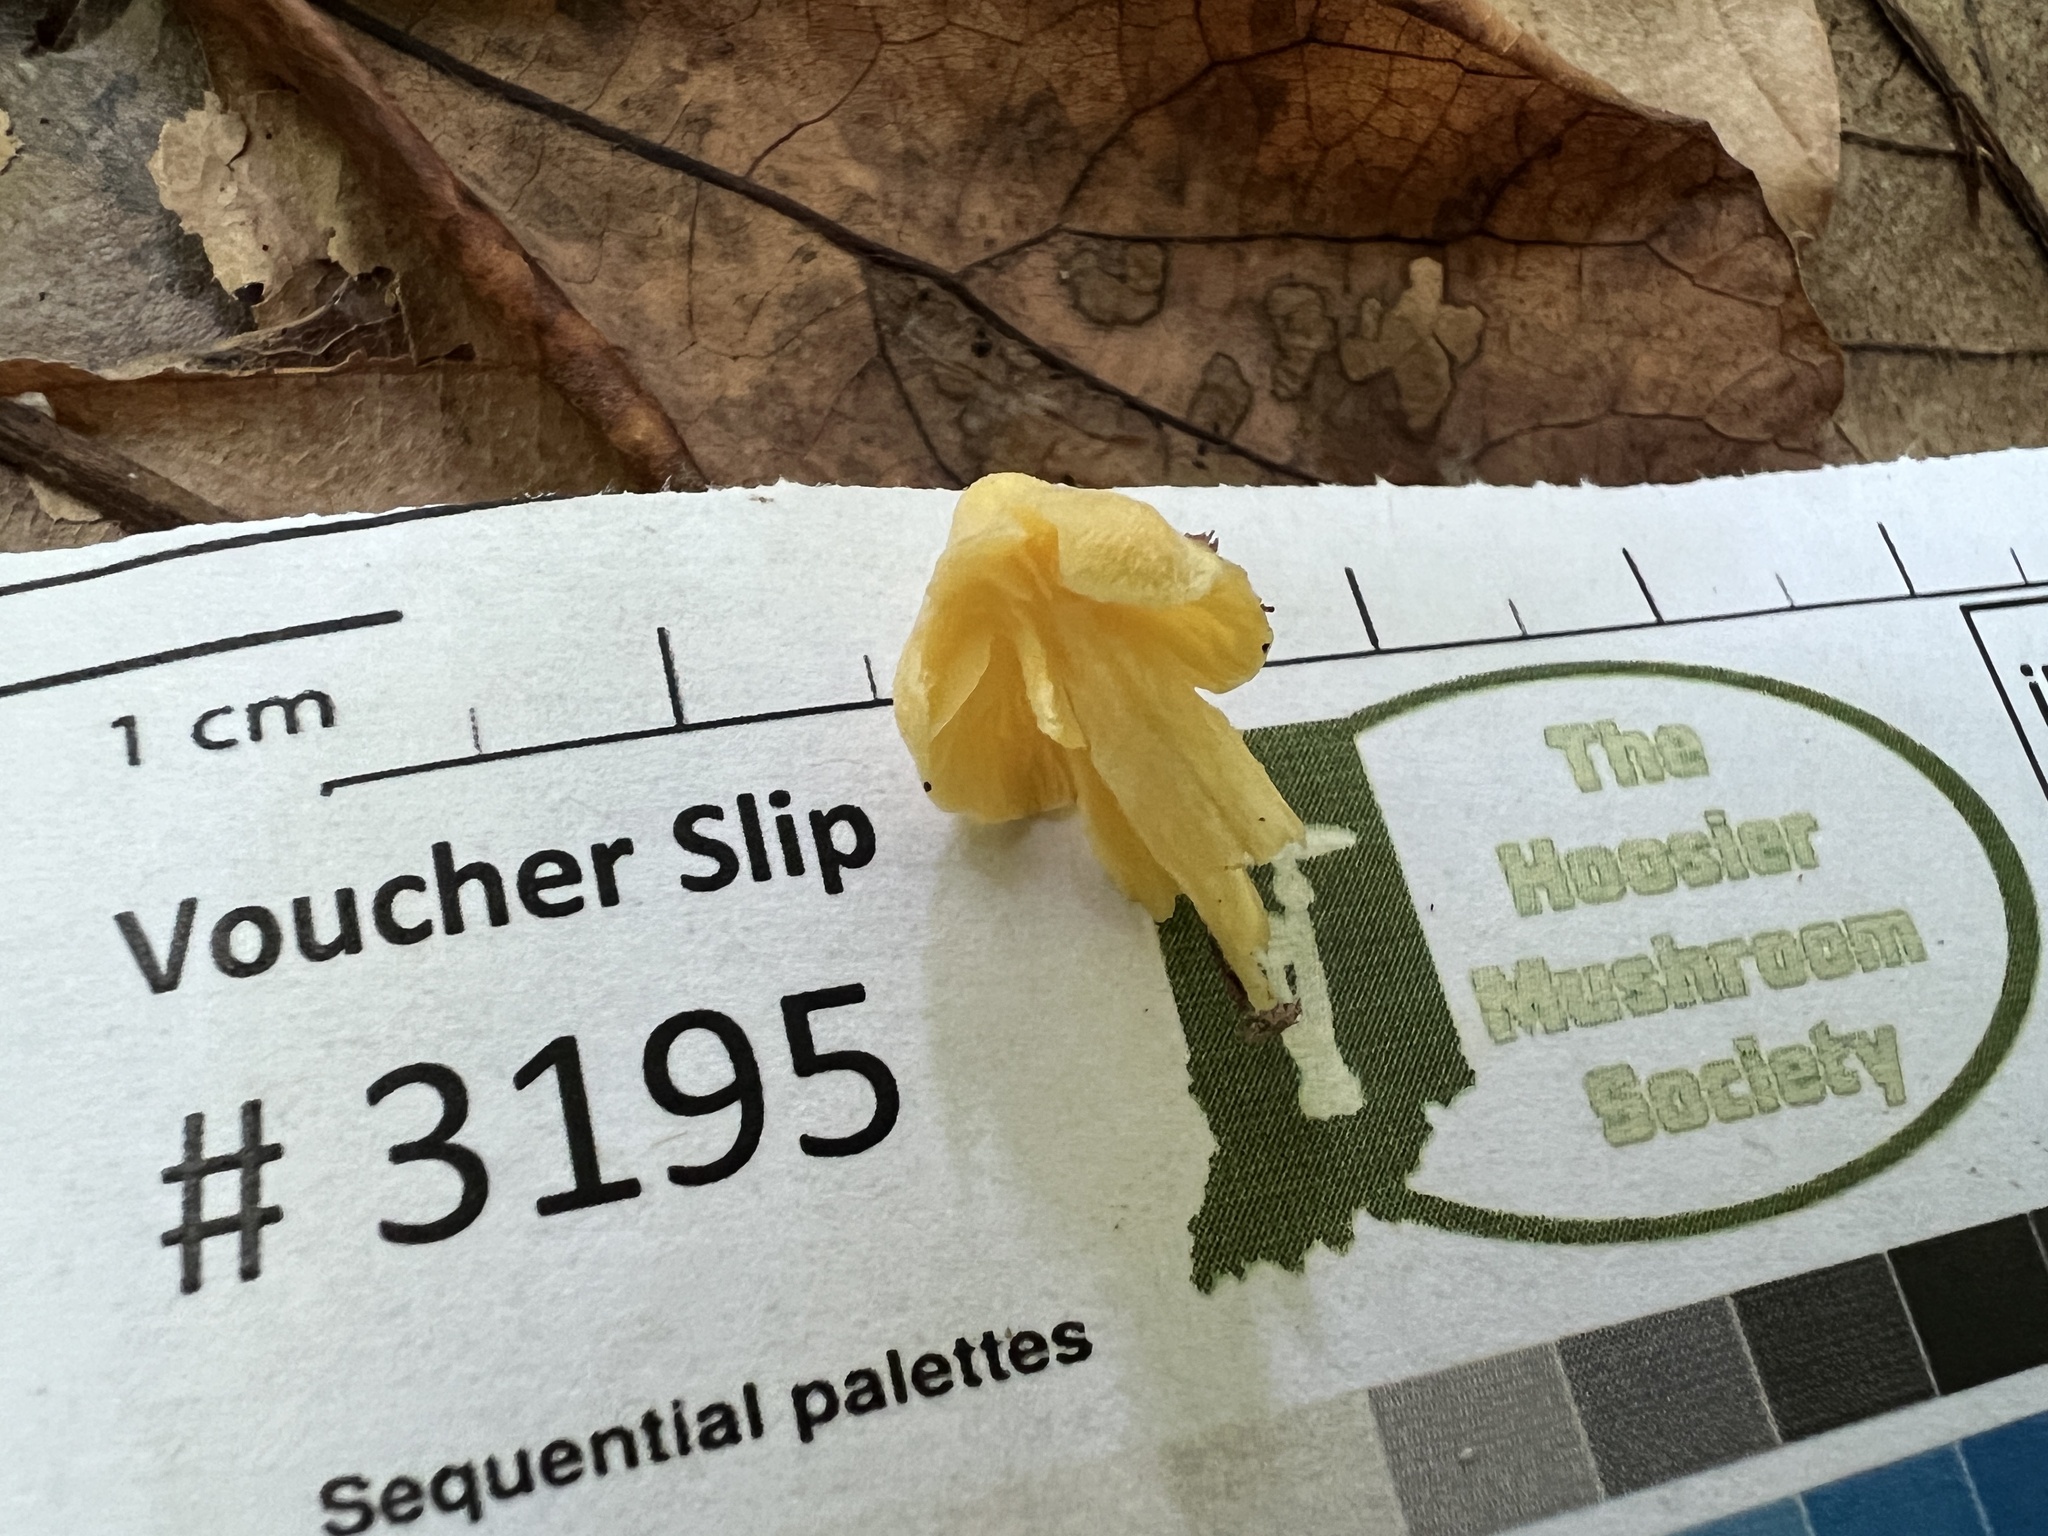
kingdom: Fungi
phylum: Basidiomycota
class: Agaricomycetes
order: Agaricales
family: Entolomataceae
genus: Entoloma
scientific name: Entoloma murrayi
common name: Yellow unicorn entoloma
